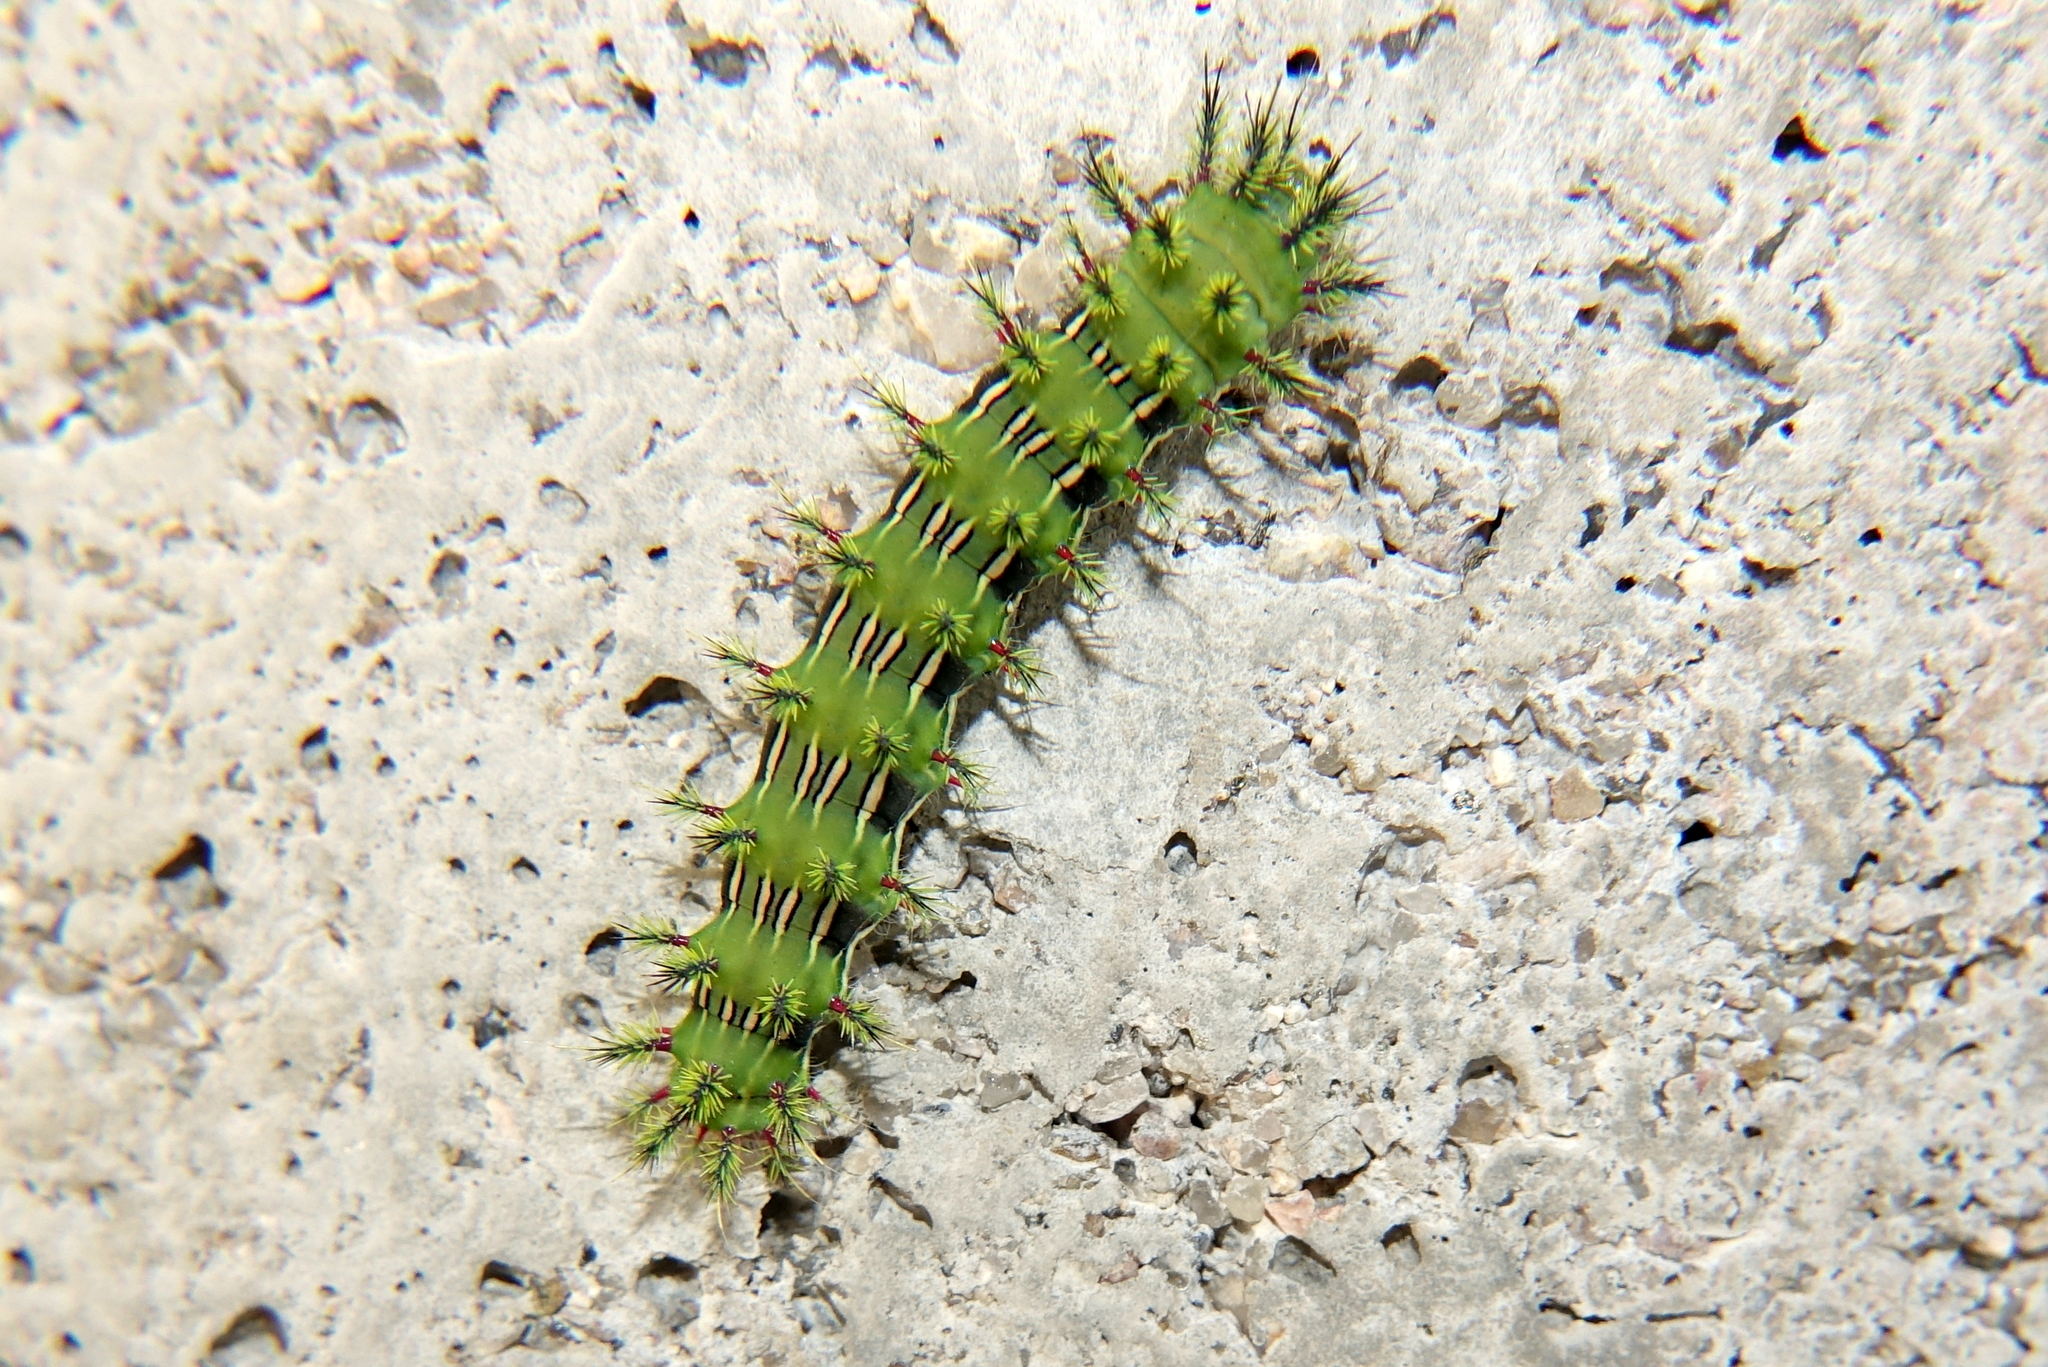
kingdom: Animalia
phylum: Arthropoda
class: Insecta
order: Lepidoptera
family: Saturniidae
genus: Automeris
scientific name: Automeris oberthurii
